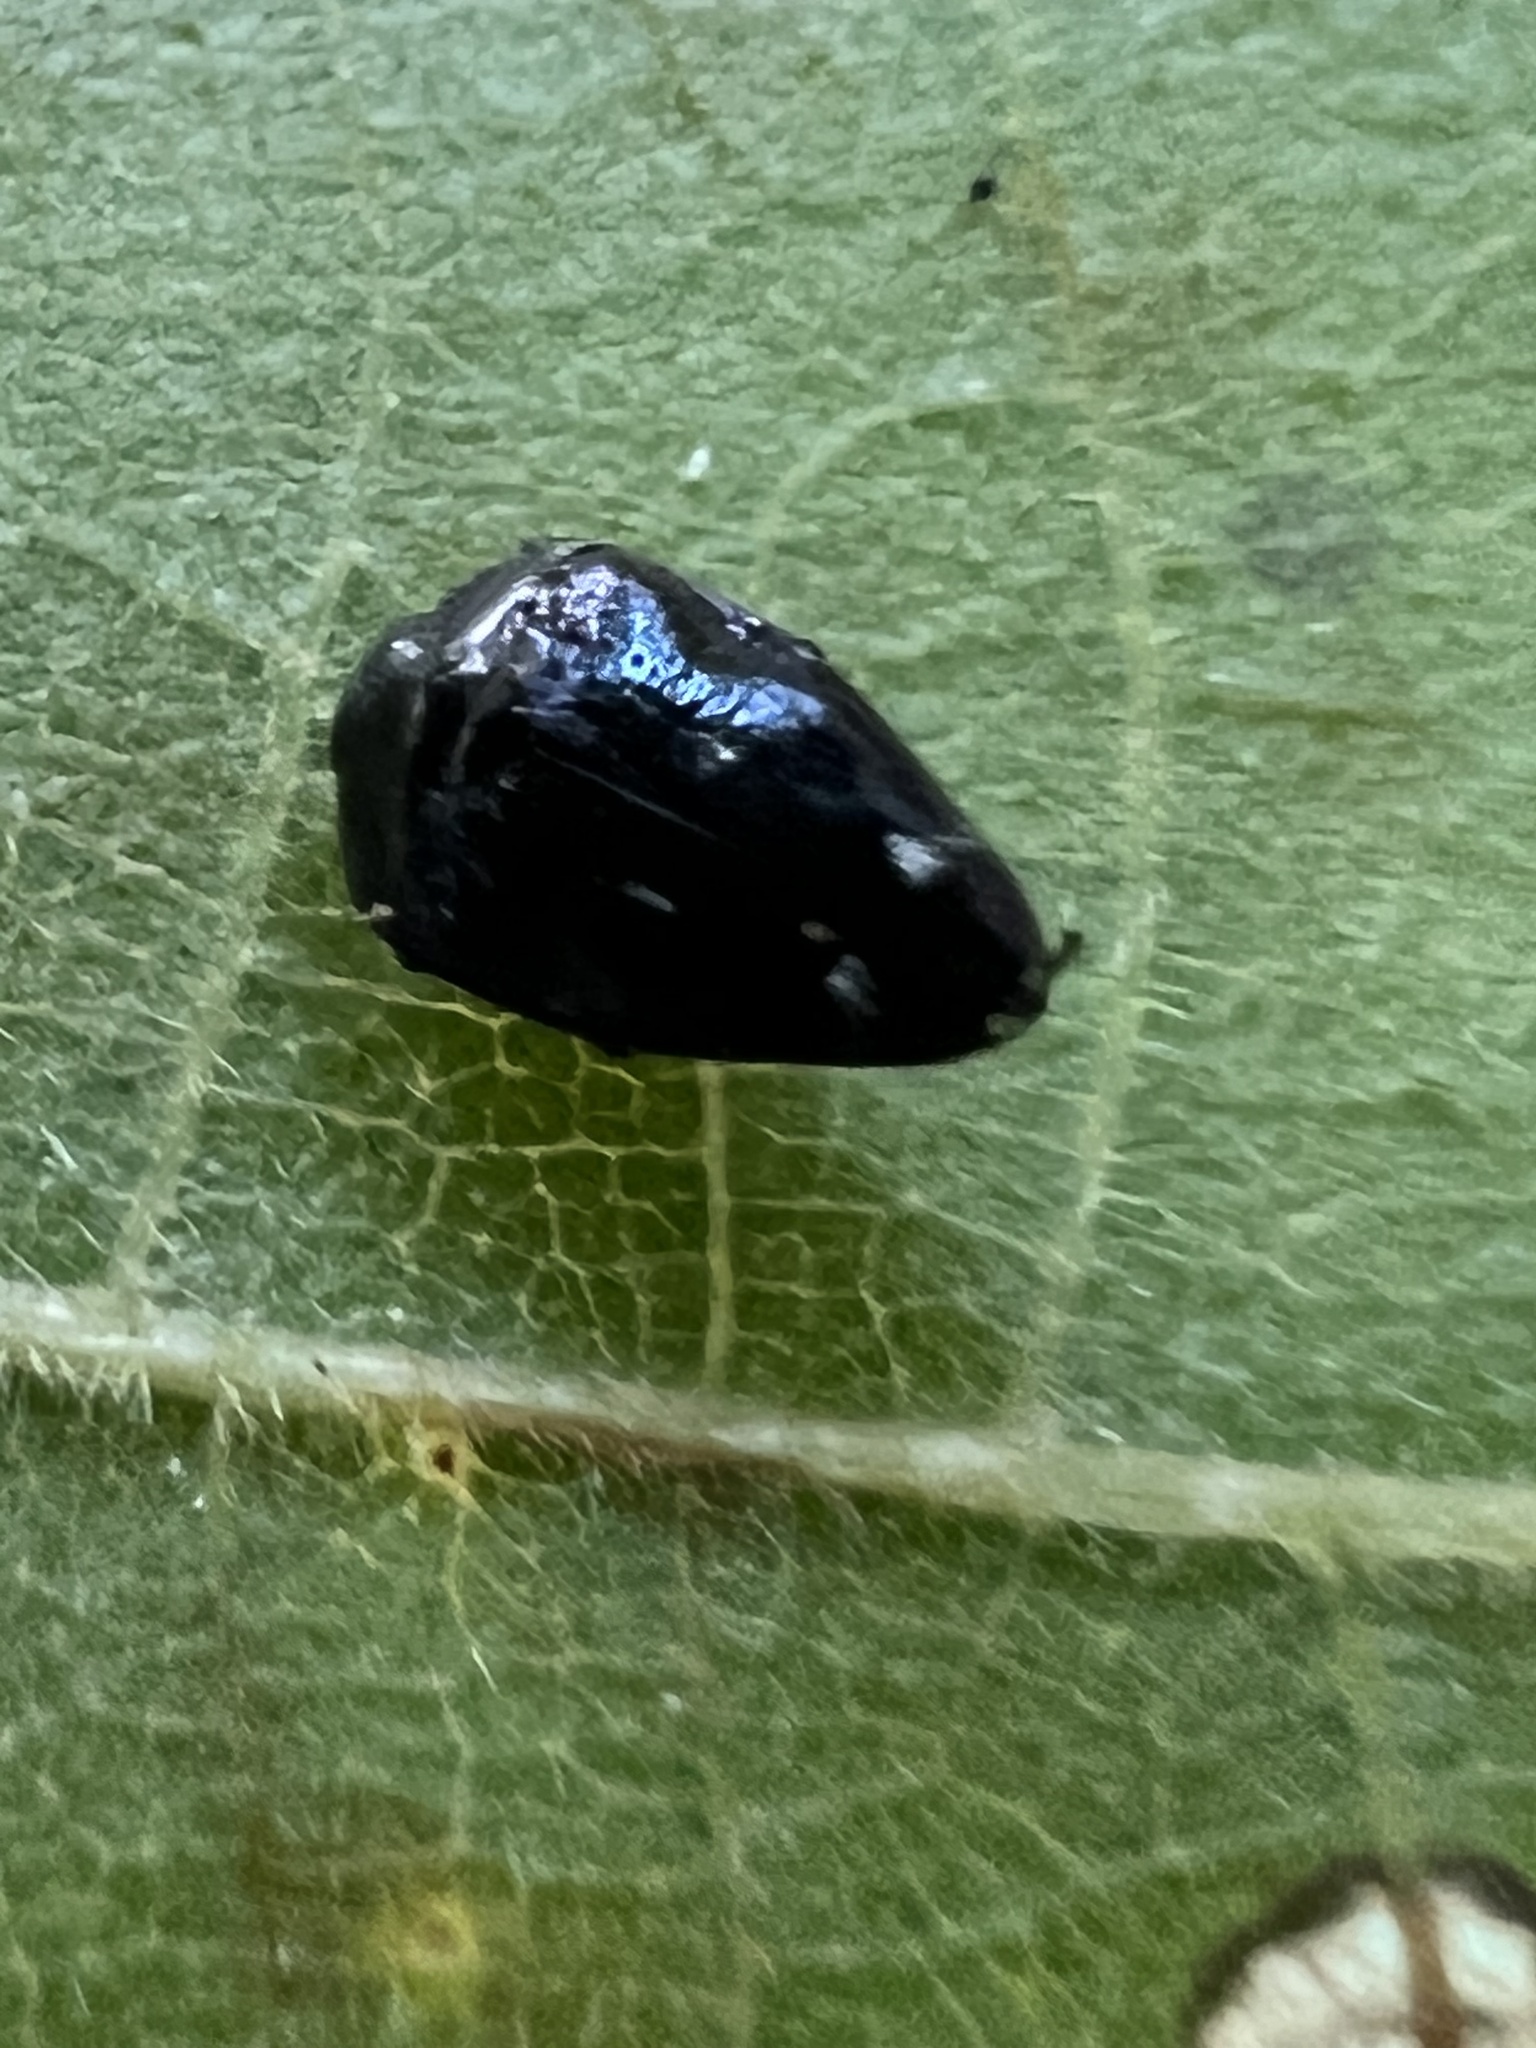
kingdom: Animalia
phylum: Arthropoda
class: Insecta
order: Coleoptera
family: Buprestidae
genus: Pachyschelus
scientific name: Pachyschelus purpureus
